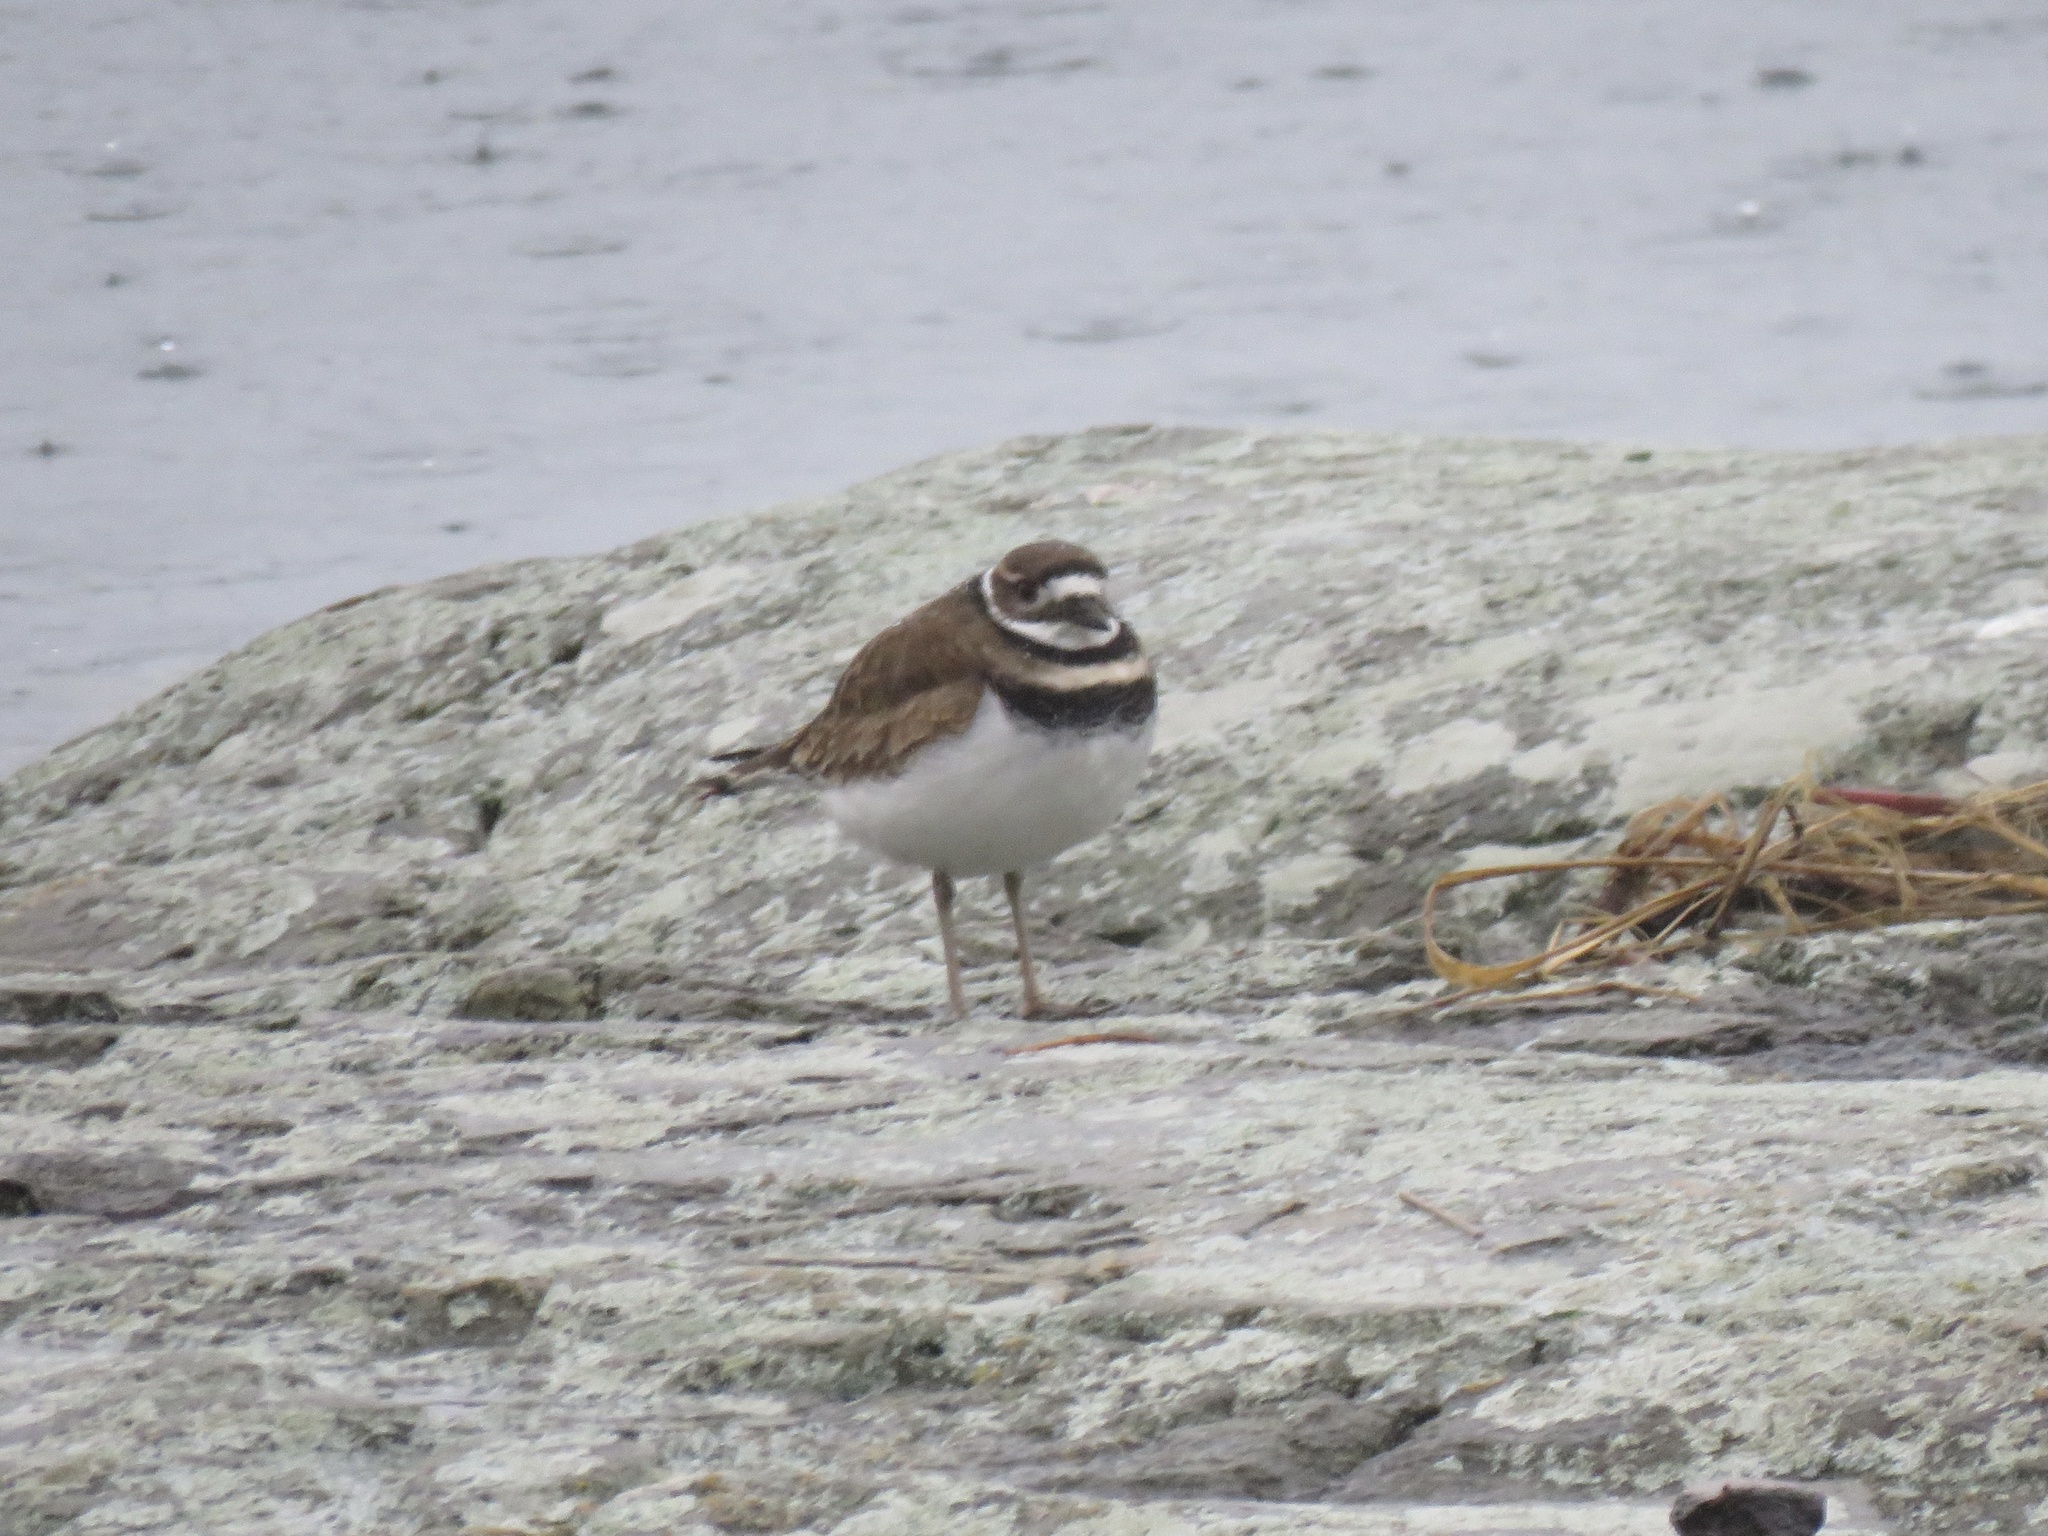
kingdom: Animalia
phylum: Chordata
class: Aves
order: Charadriiformes
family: Charadriidae
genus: Charadrius
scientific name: Charadrius vociferus
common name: Killdeer
